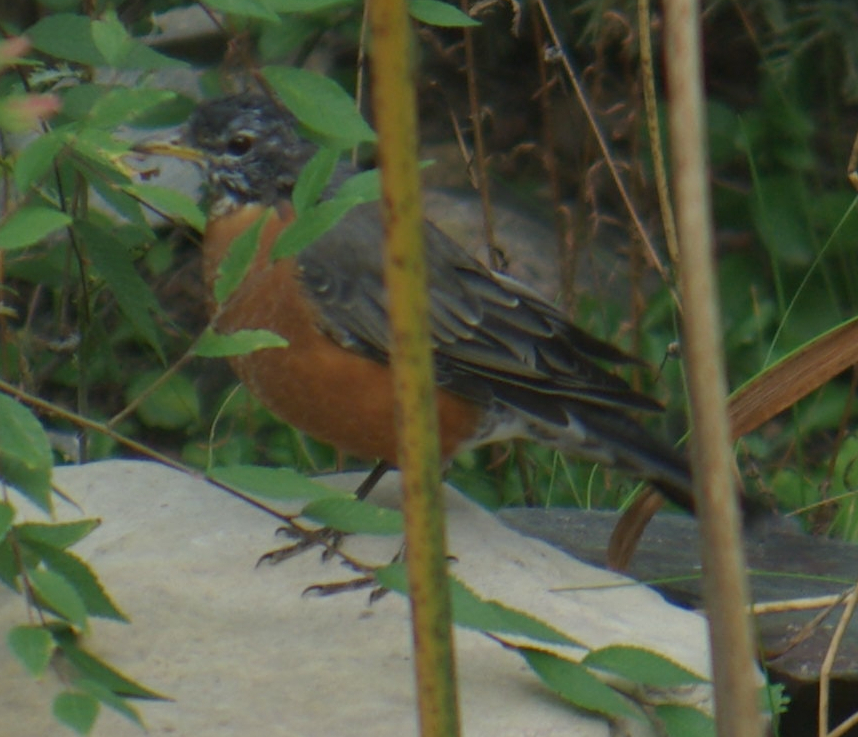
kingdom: Animalia
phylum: Chordata
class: Aves
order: Passeriformes
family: Turdidae
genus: Turdus
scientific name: Turdus migratorius
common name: American robin
